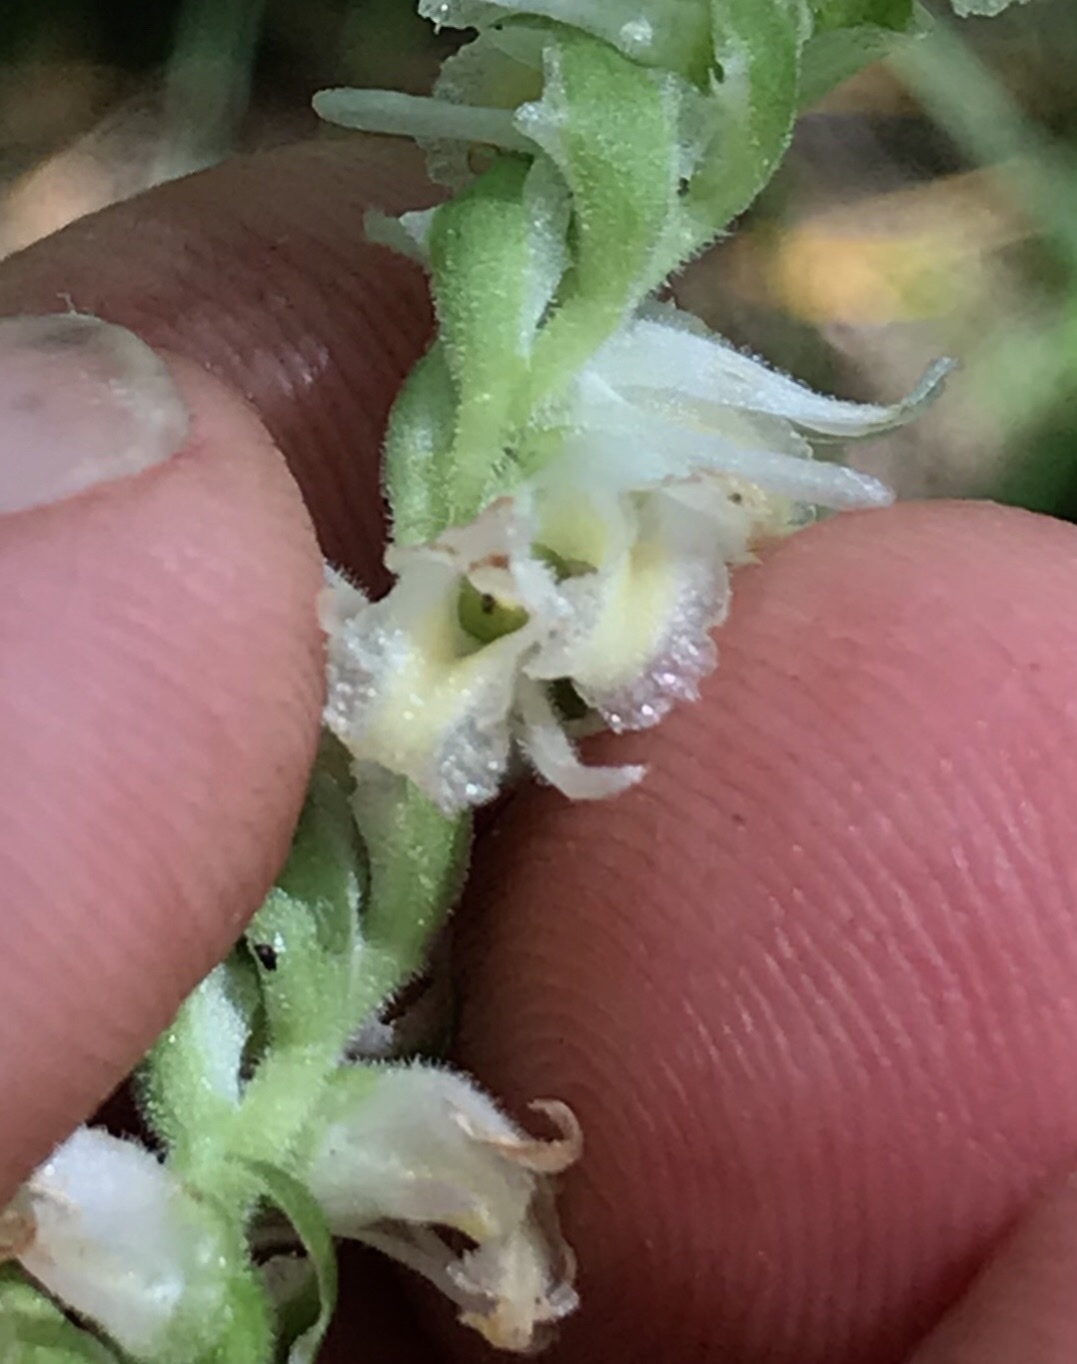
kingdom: Plantae
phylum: Tracheophyta
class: Liliopsida
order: Asparagales
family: Orchidaceae
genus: Spiranthes
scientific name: Spiranthes vernalis
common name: Spring ladies'-tresses
